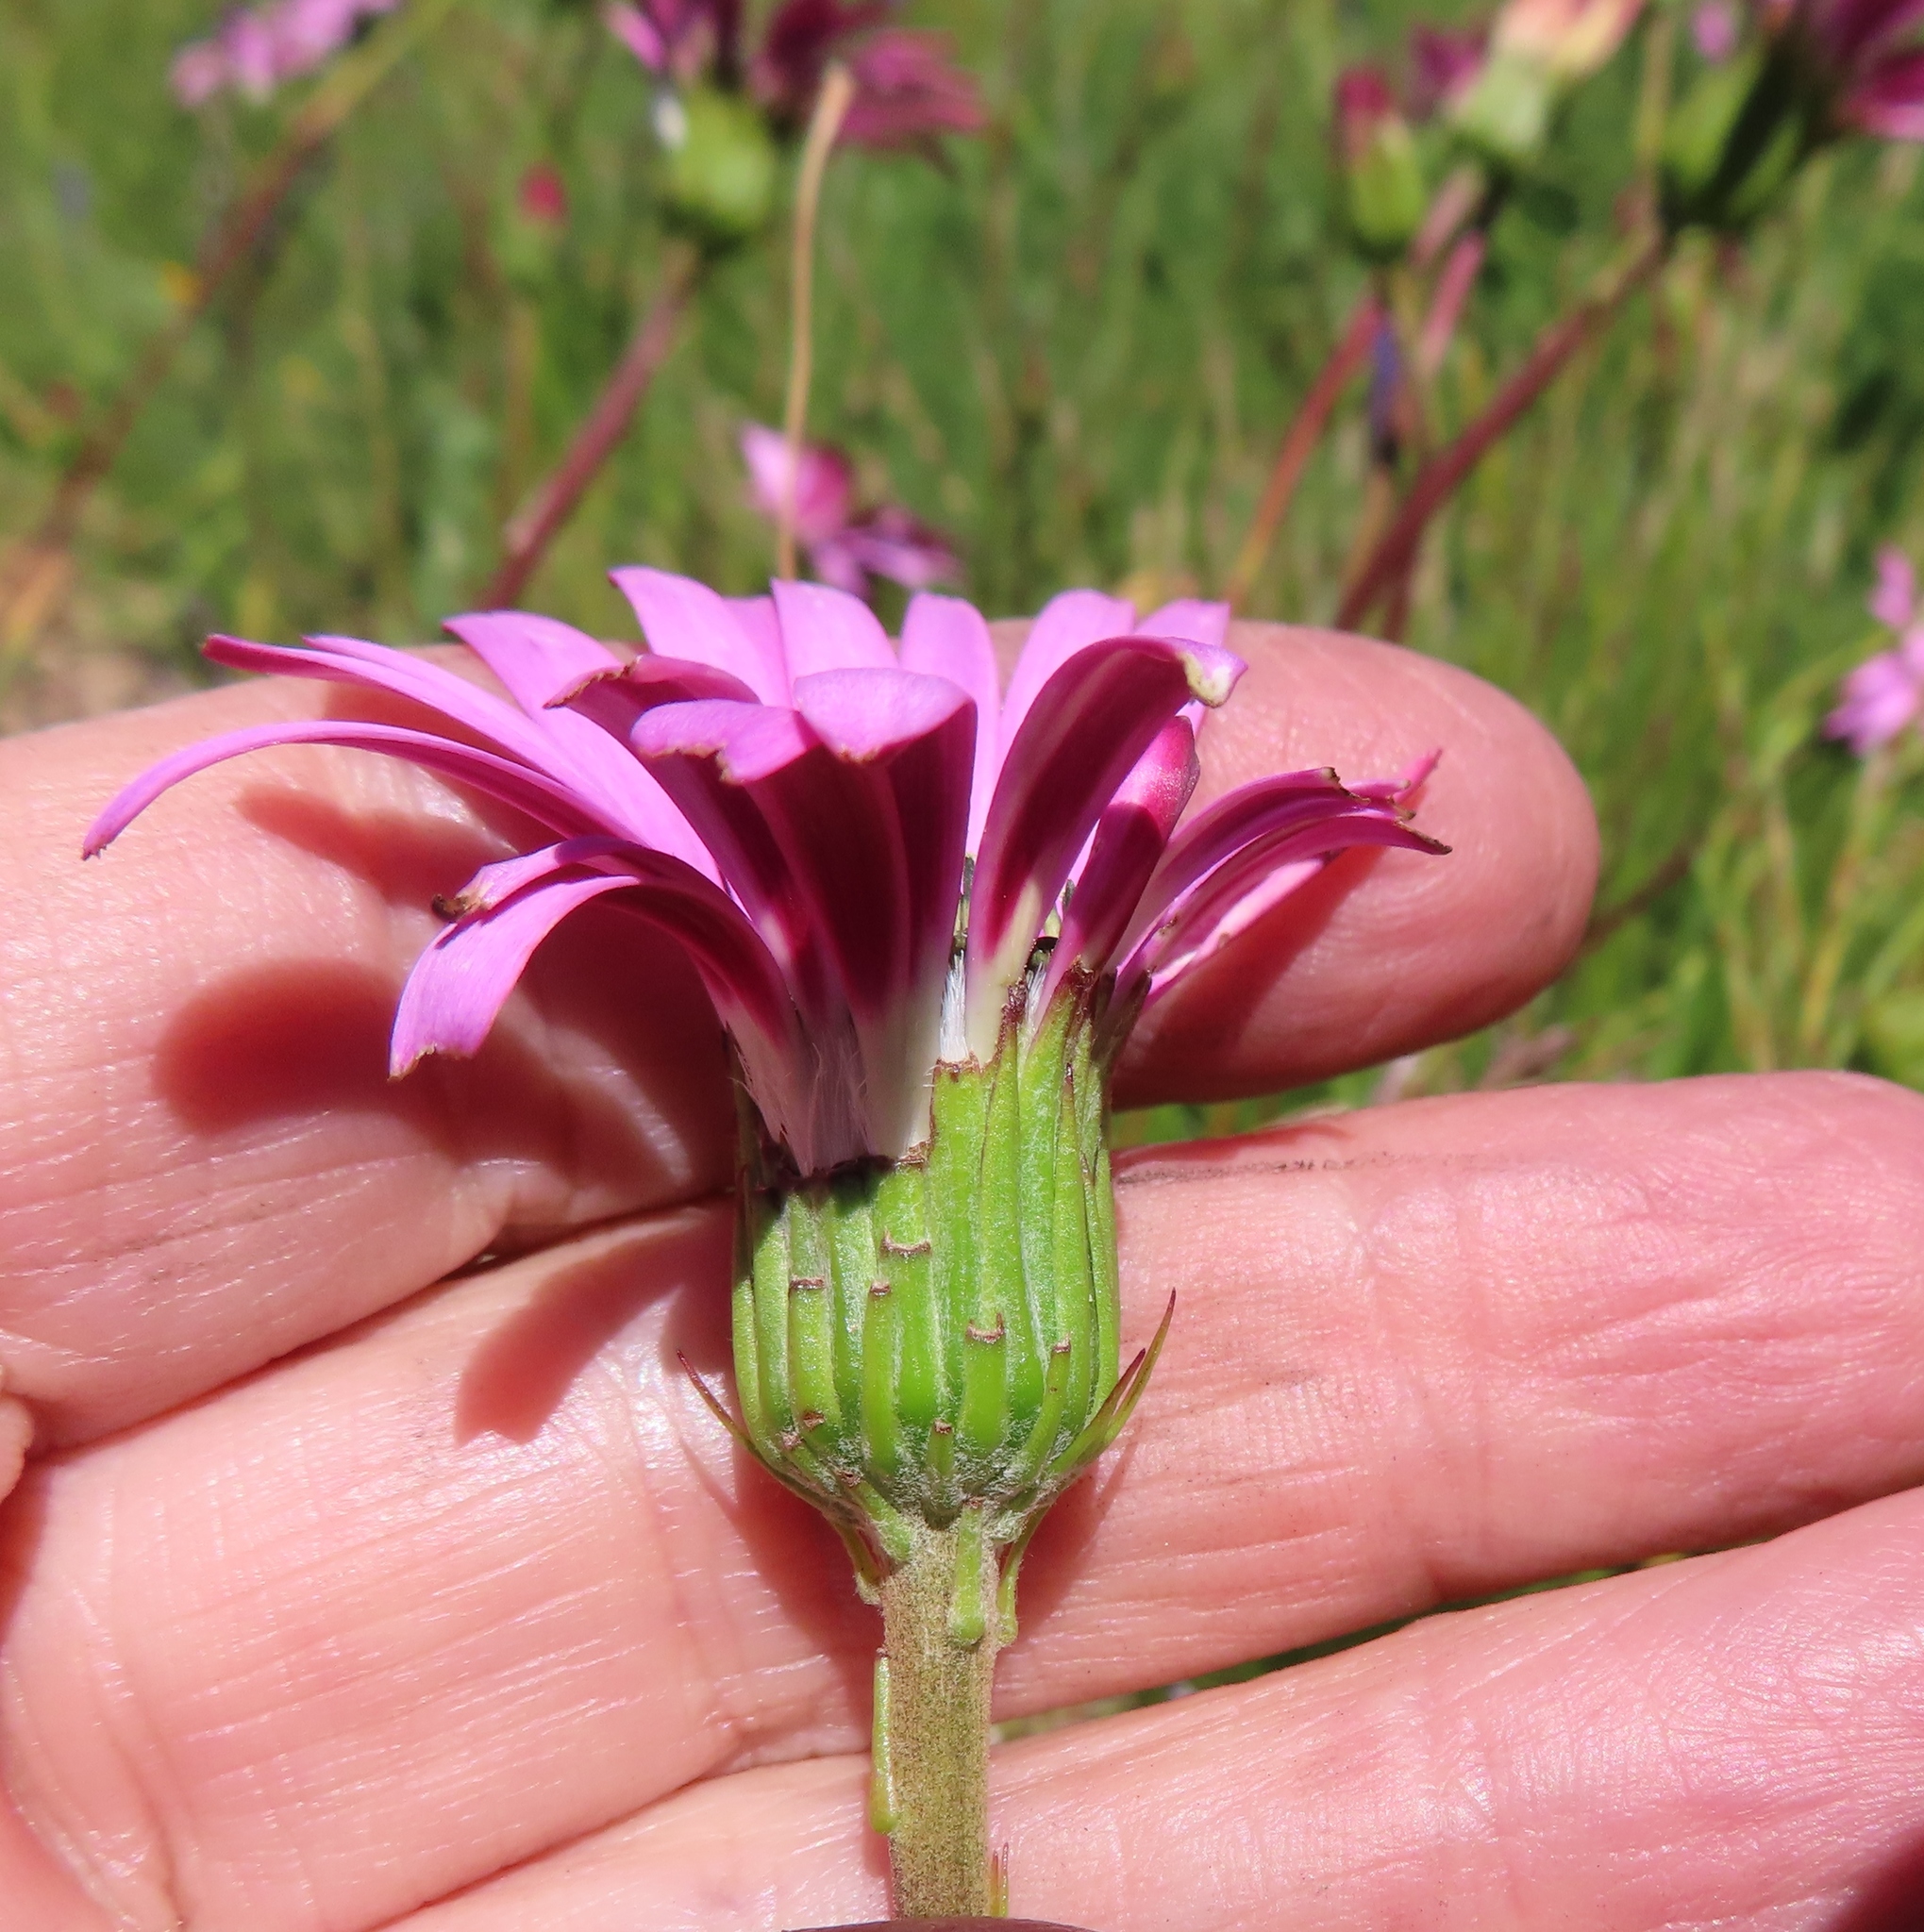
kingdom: Plantae
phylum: Tracheophyta
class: Magnoliopsida
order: Asterales
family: Asteraceae
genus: Gerbera
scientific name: Gerbera crocea
